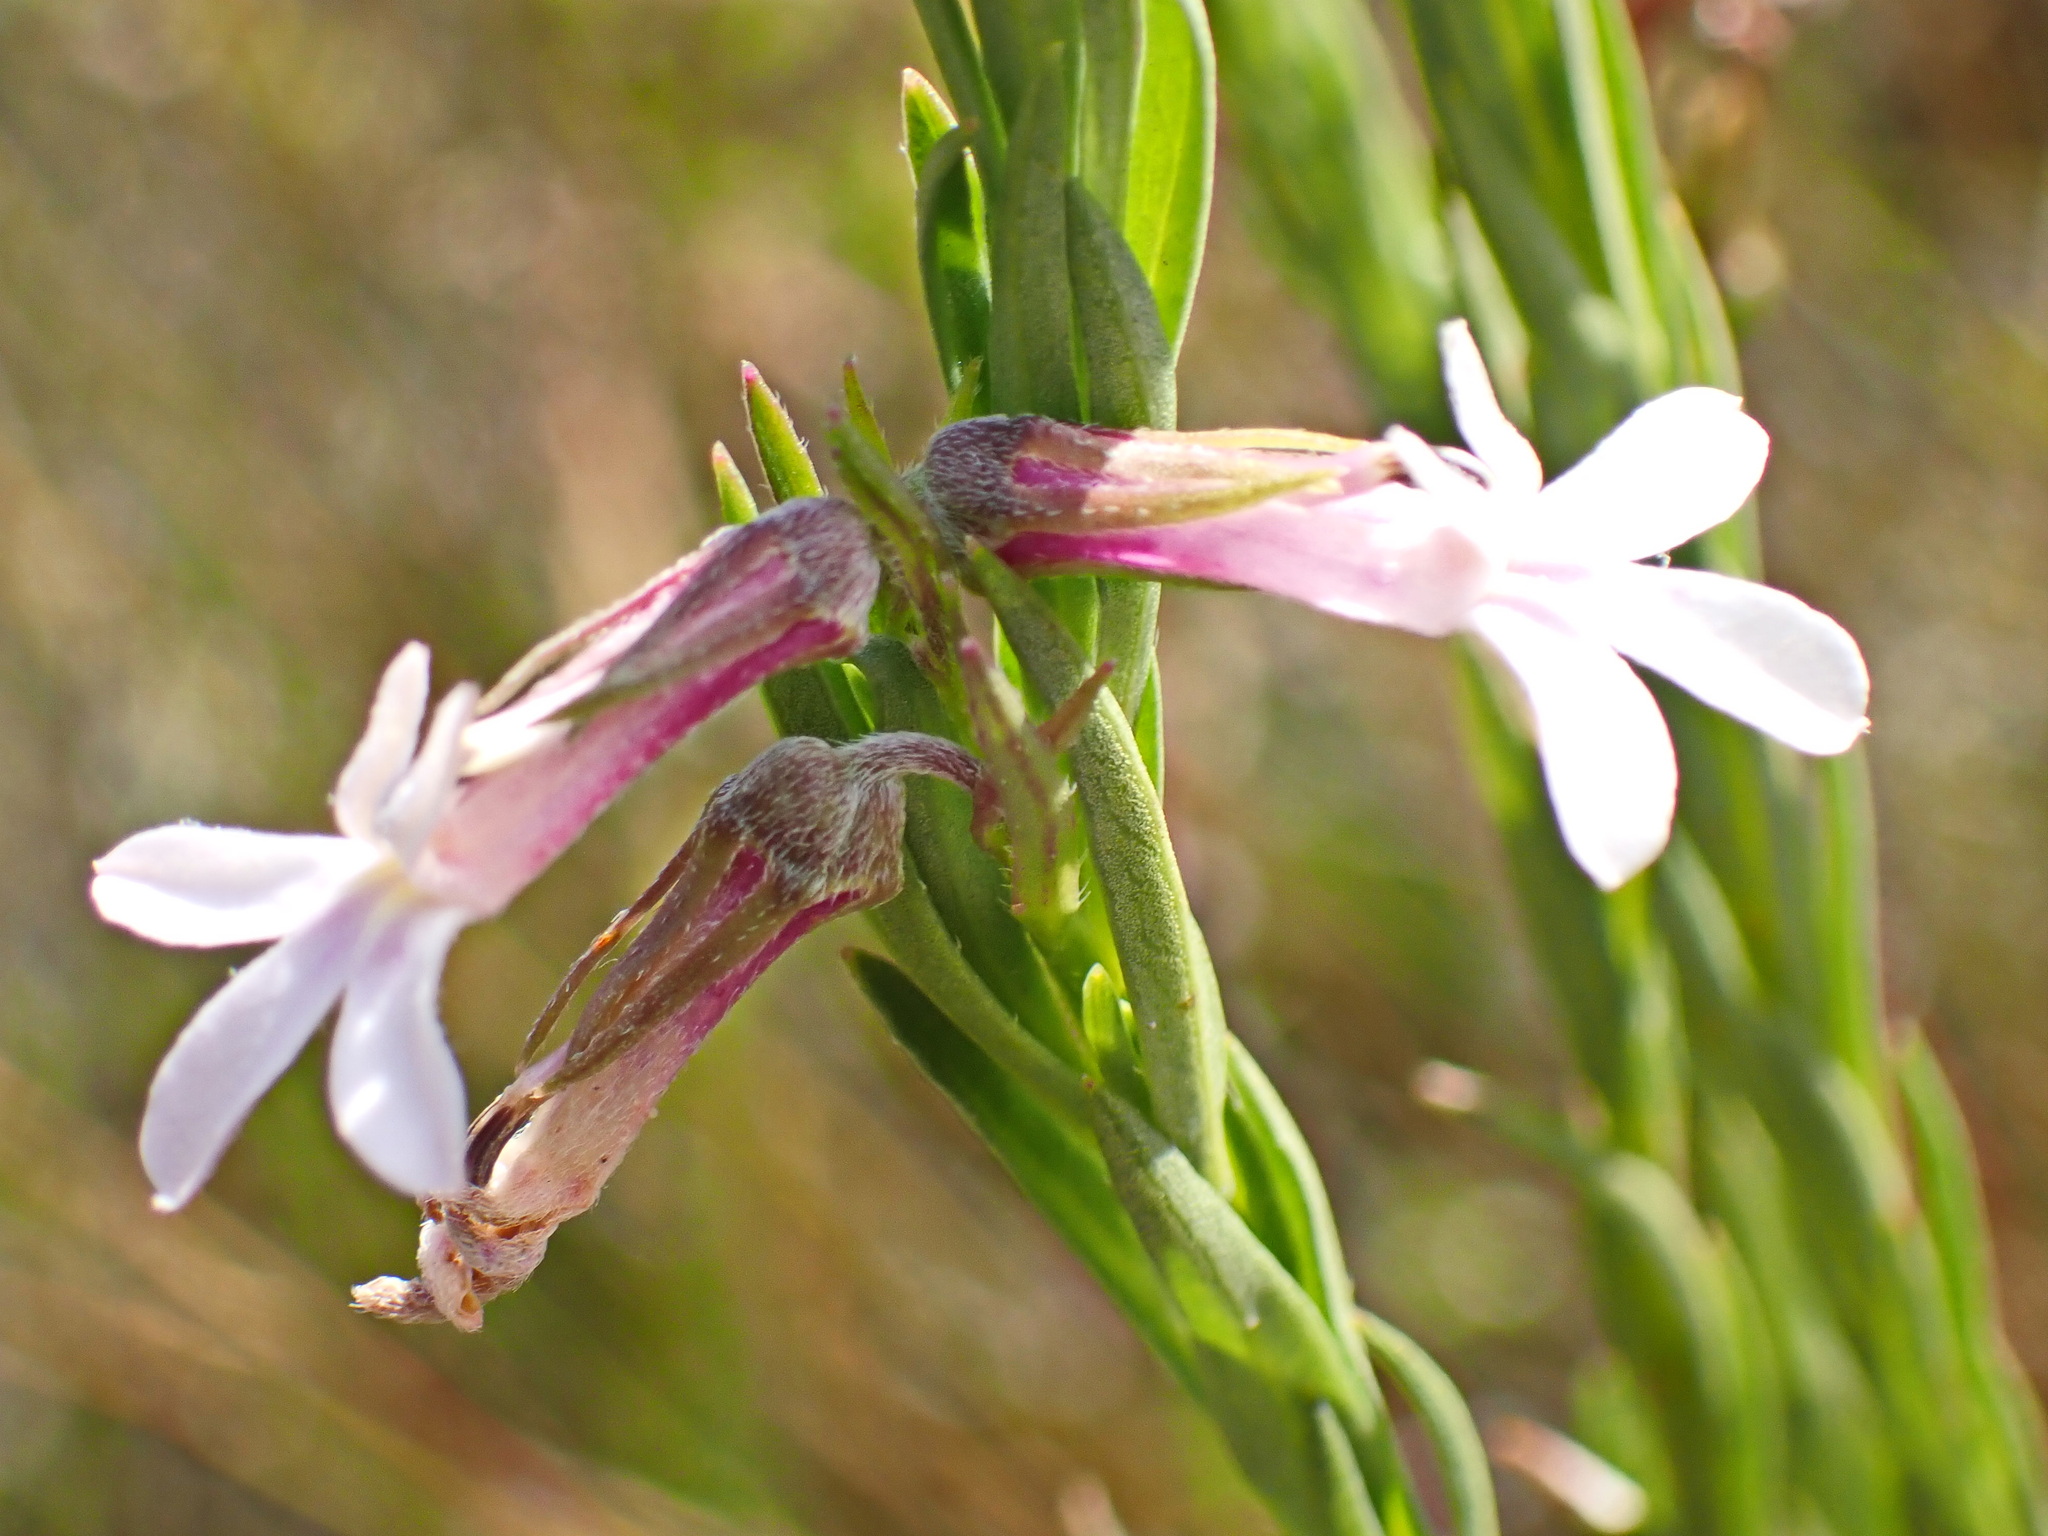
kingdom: Plantae
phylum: Tracheophyta
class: Magnoliopsida
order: Asterales
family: Campanulaceae
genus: Lobelia
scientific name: Lobelia pinifolia
